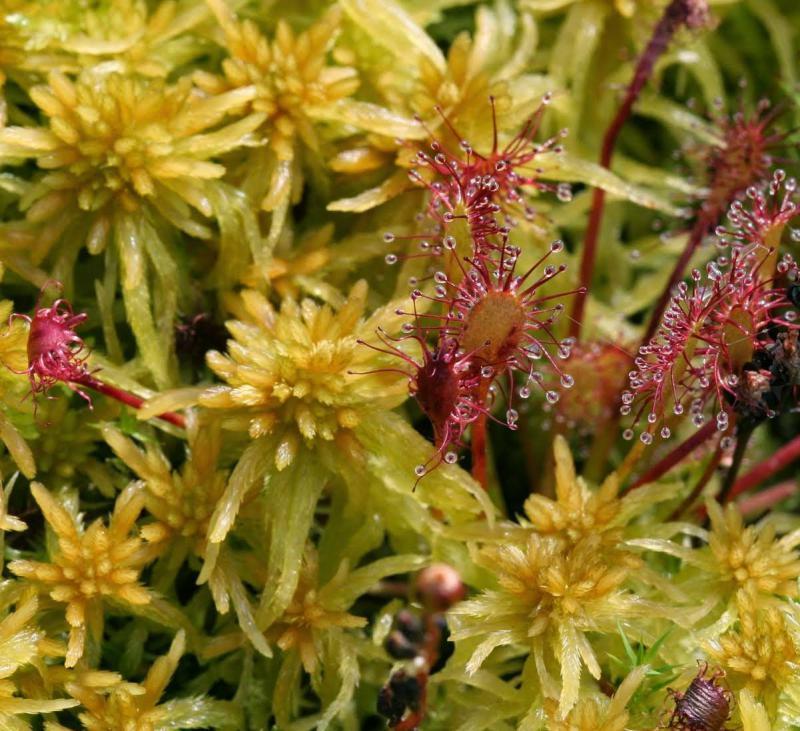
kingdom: Plantae
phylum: Tracheophyta
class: Magnoliopsida
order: Caryophyllales
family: Droseraceae
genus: Drosera
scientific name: Drosera intermedia
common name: Oblong-leaved sundew
